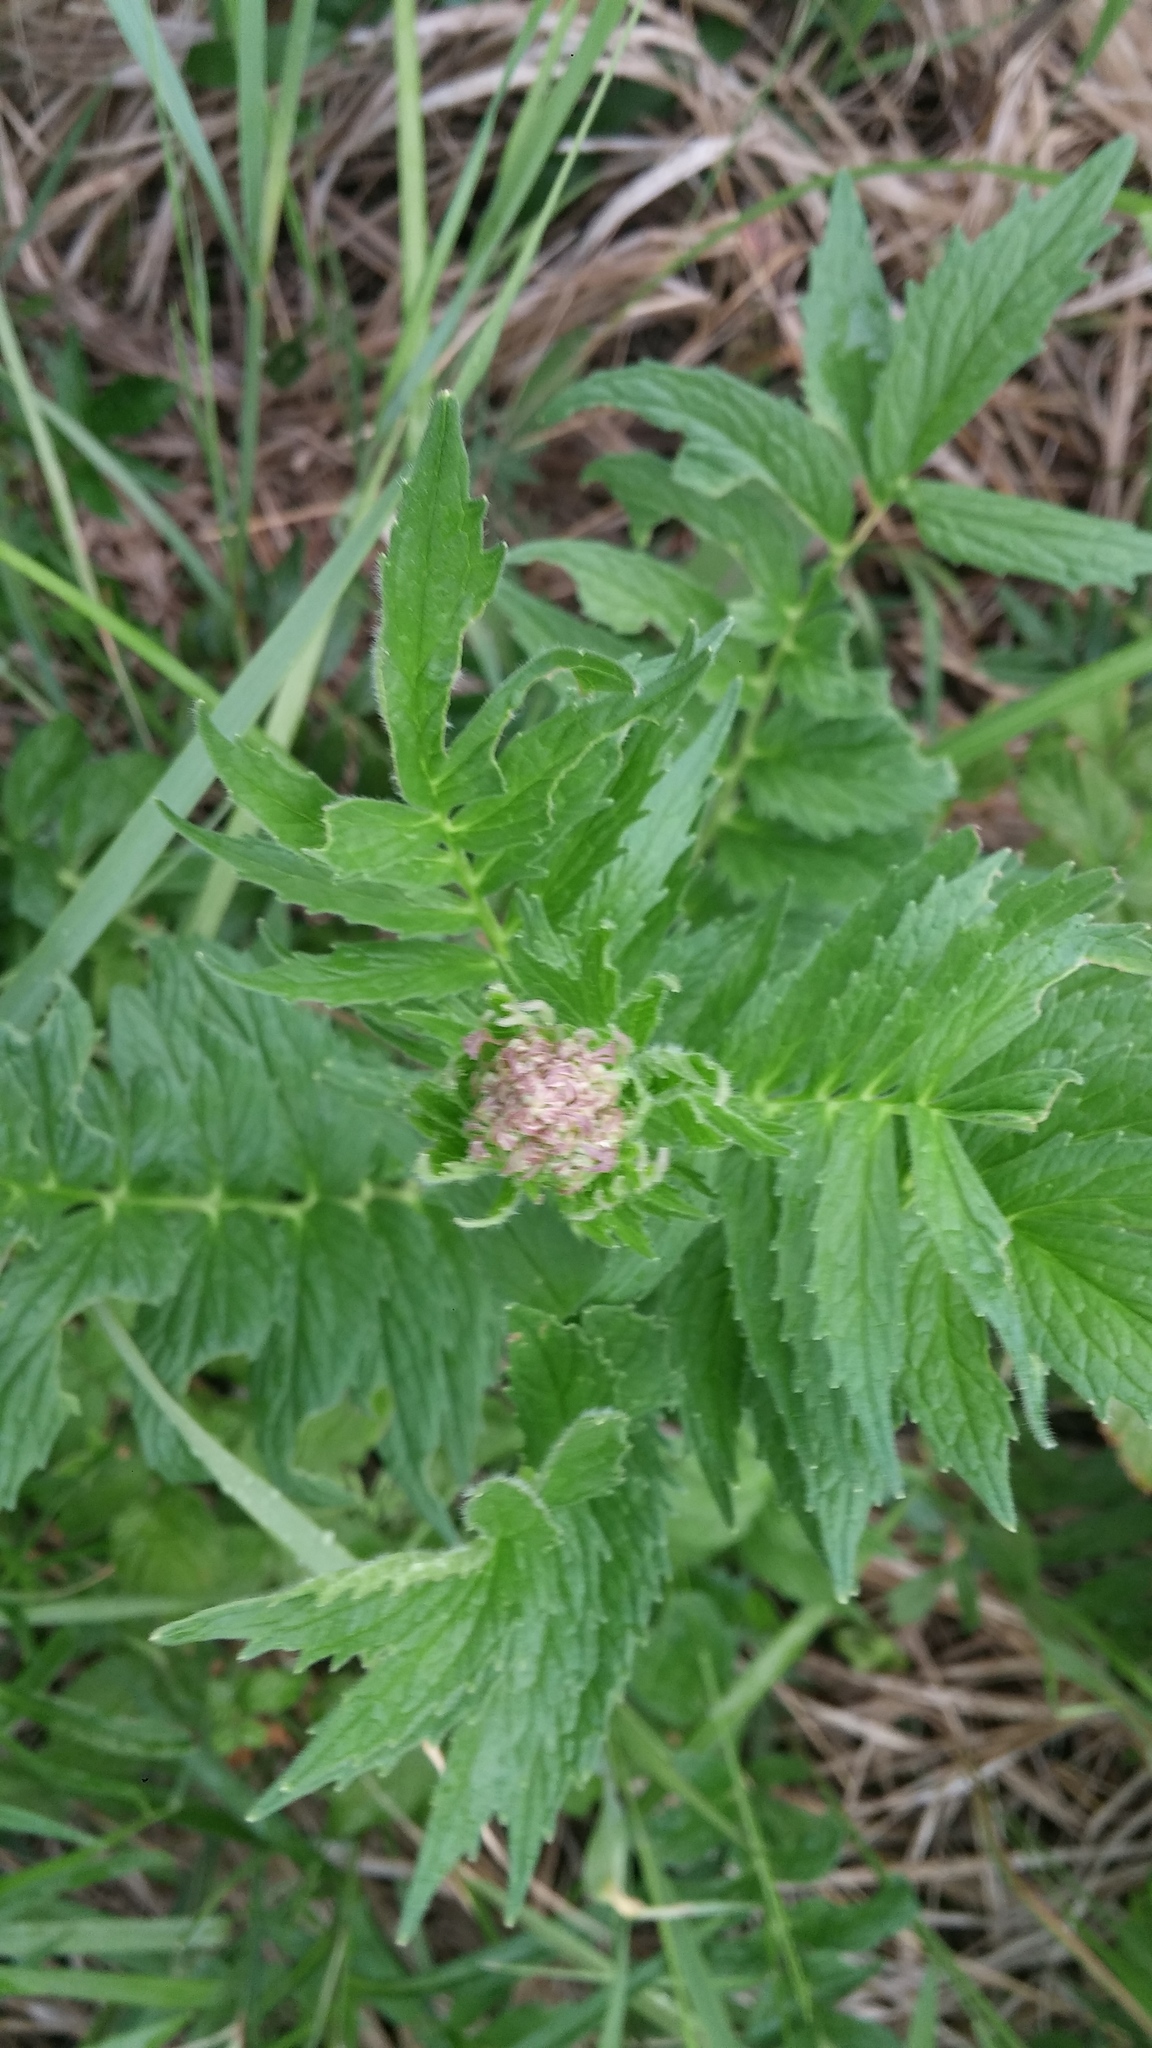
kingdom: Plantae
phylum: Tracheophyta
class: Magnoliopsida
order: Dipsacales
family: Caprifoliaceae
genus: Valeriana
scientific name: Valeriana officinalis
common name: Common valerian
